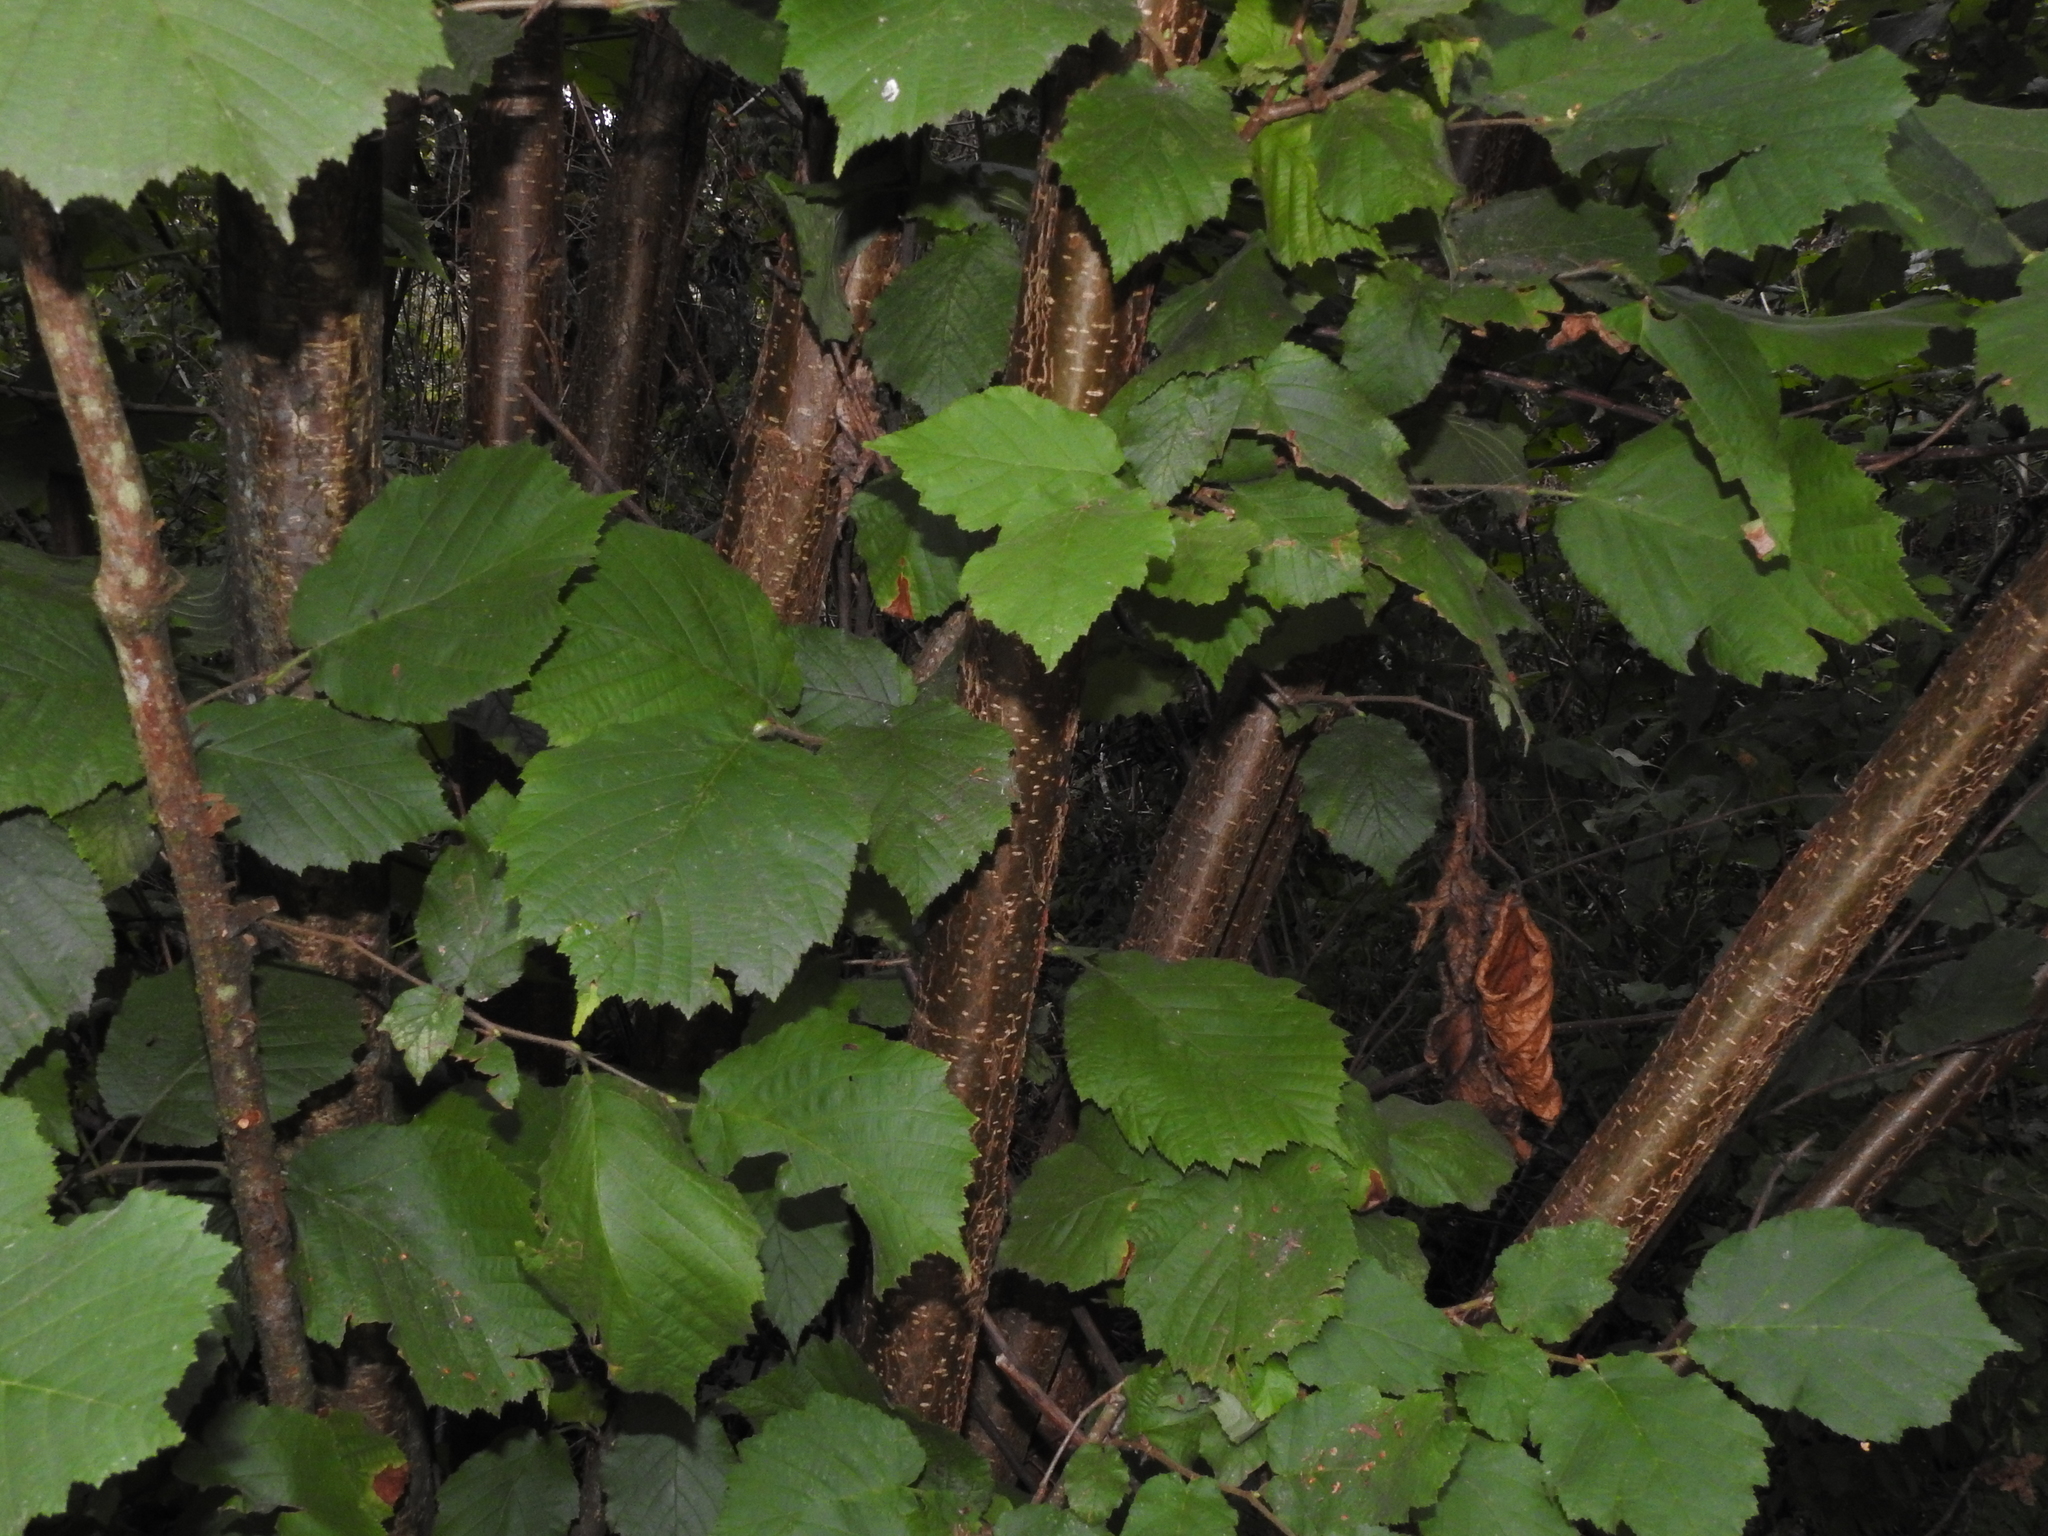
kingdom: Plantae
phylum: Tracheophyta
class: Magnoliopsida
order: Fagales
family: Betulaceae
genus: Corylus
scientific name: Corylus avellana
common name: European hazel
